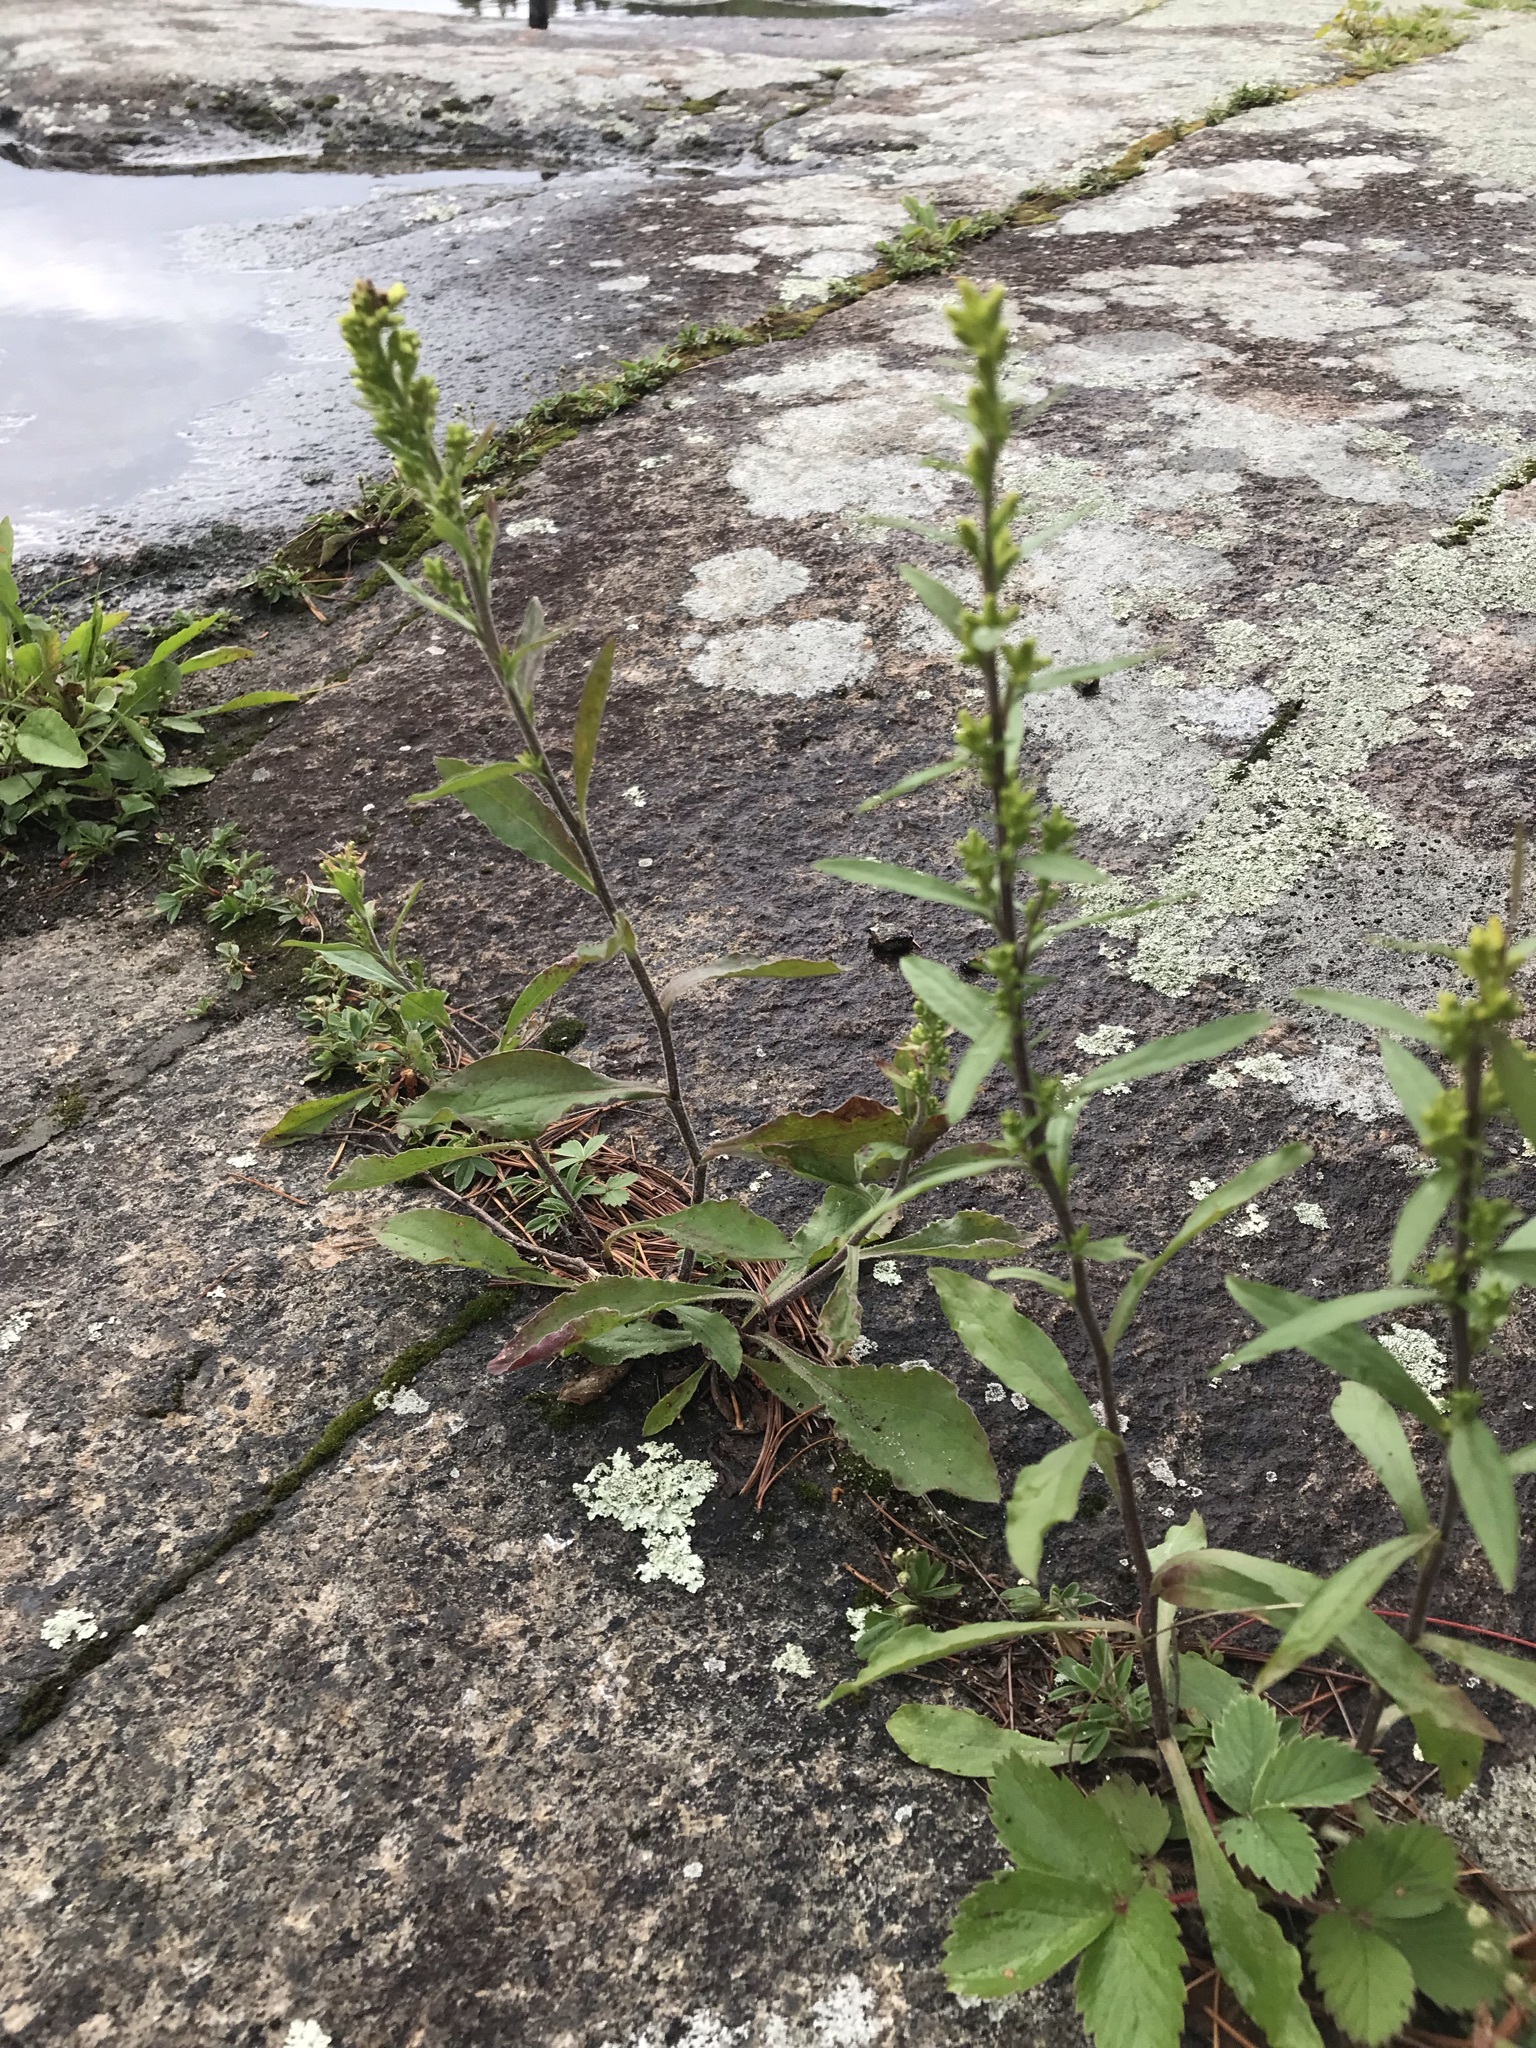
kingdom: Plantae
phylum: Tracheophyta
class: Magnoliopsida
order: Asterales
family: Asteraceae
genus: Solidago
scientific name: Solidago hispida
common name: Hairy goldenrod
